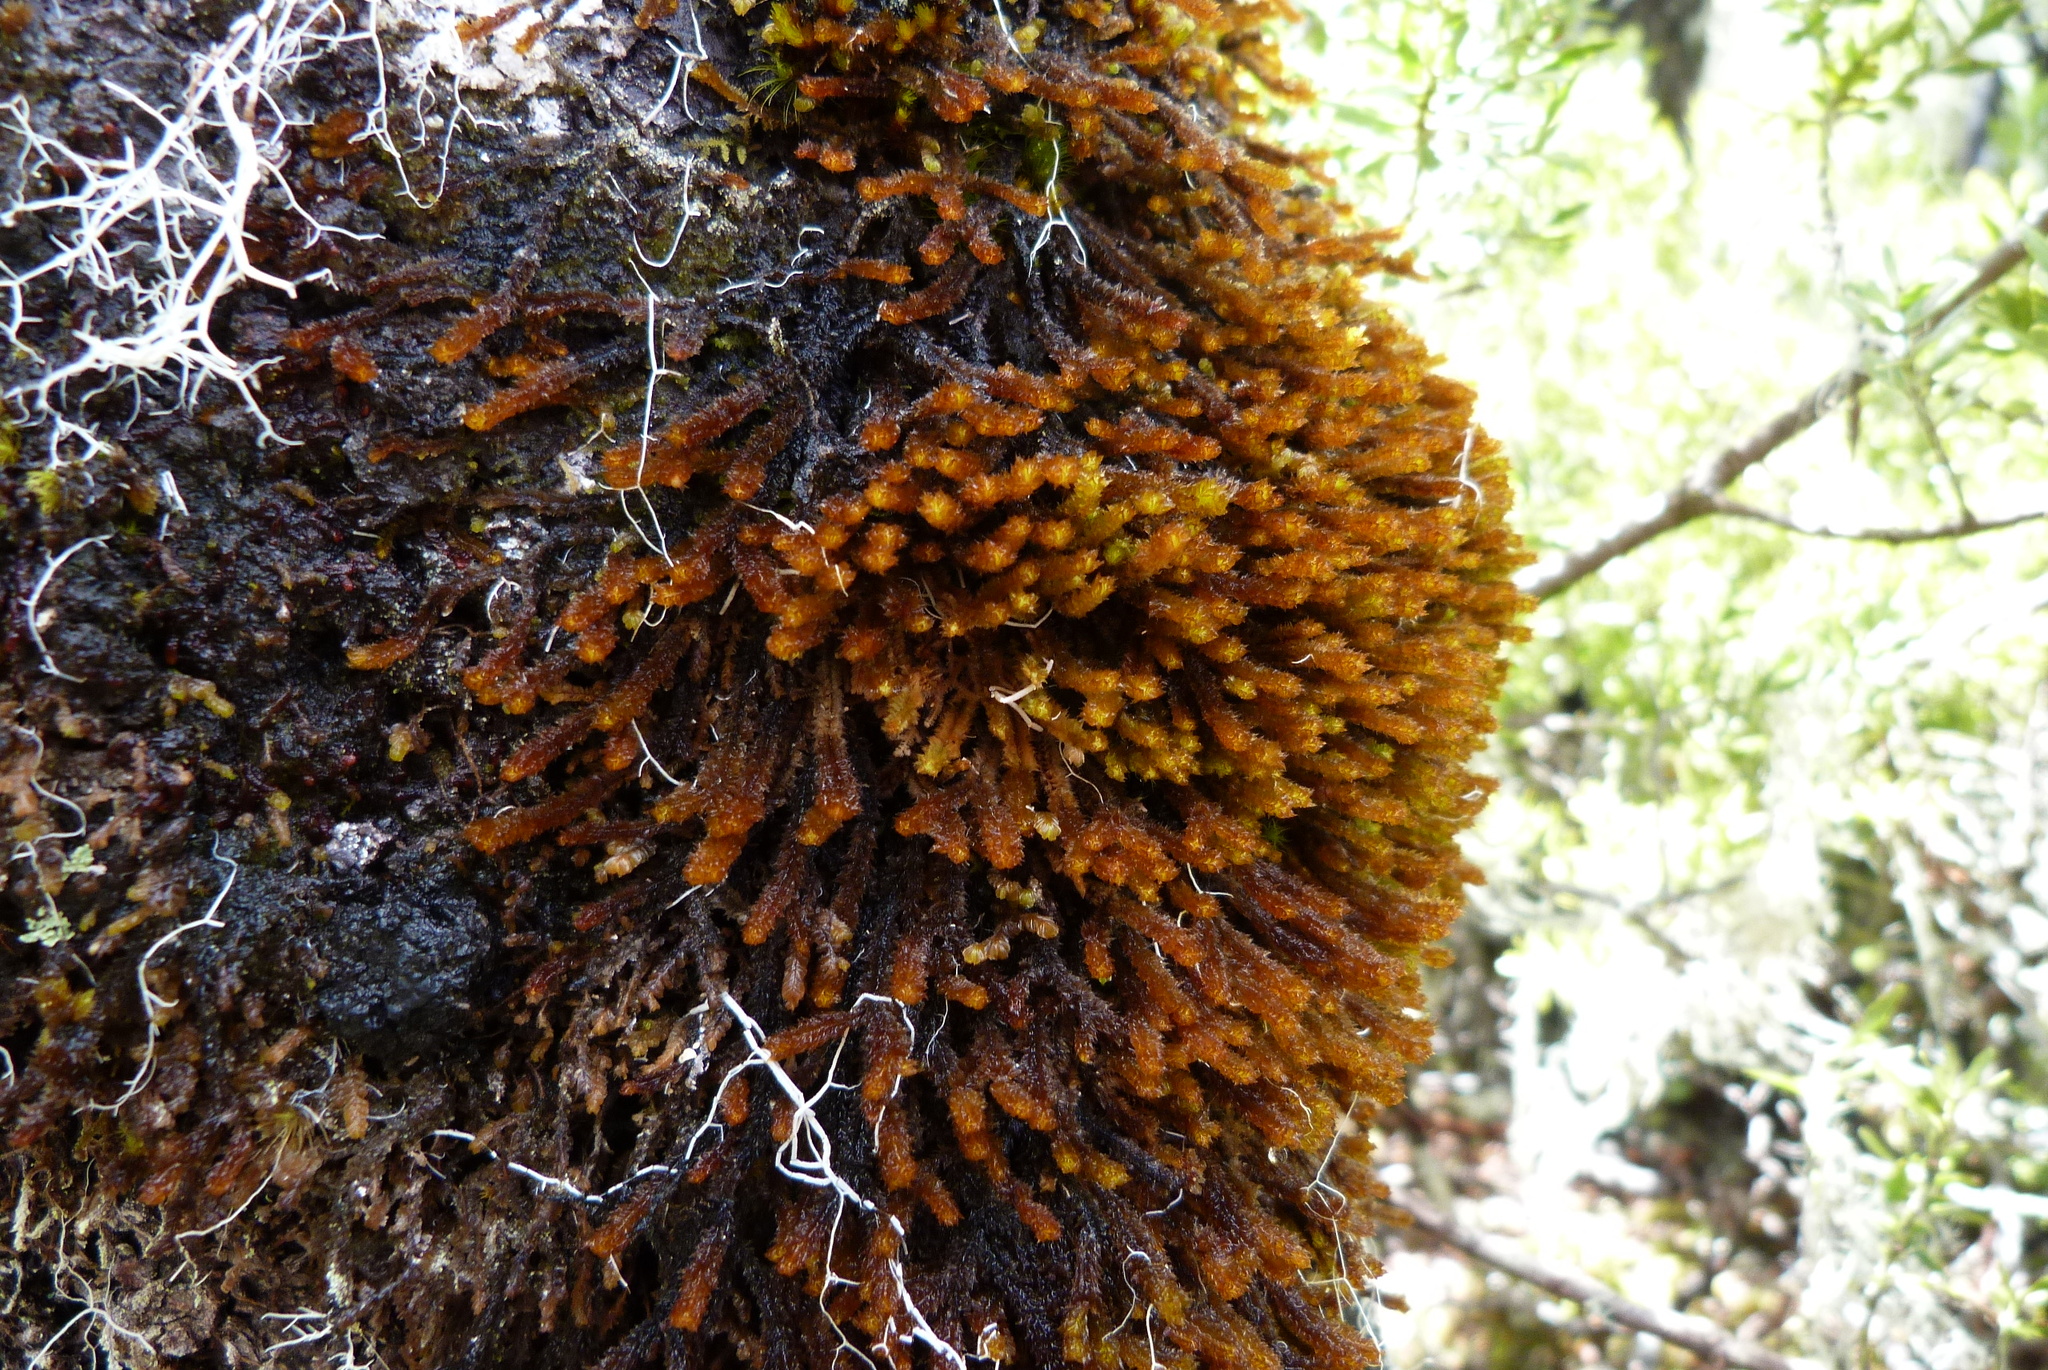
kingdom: Plantae
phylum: Marchantiophyta
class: Jungermanniopsida
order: Jungermanniales
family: Anastrophyllaceae
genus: Chandonanthus
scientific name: Chandonanthus squarrosus
